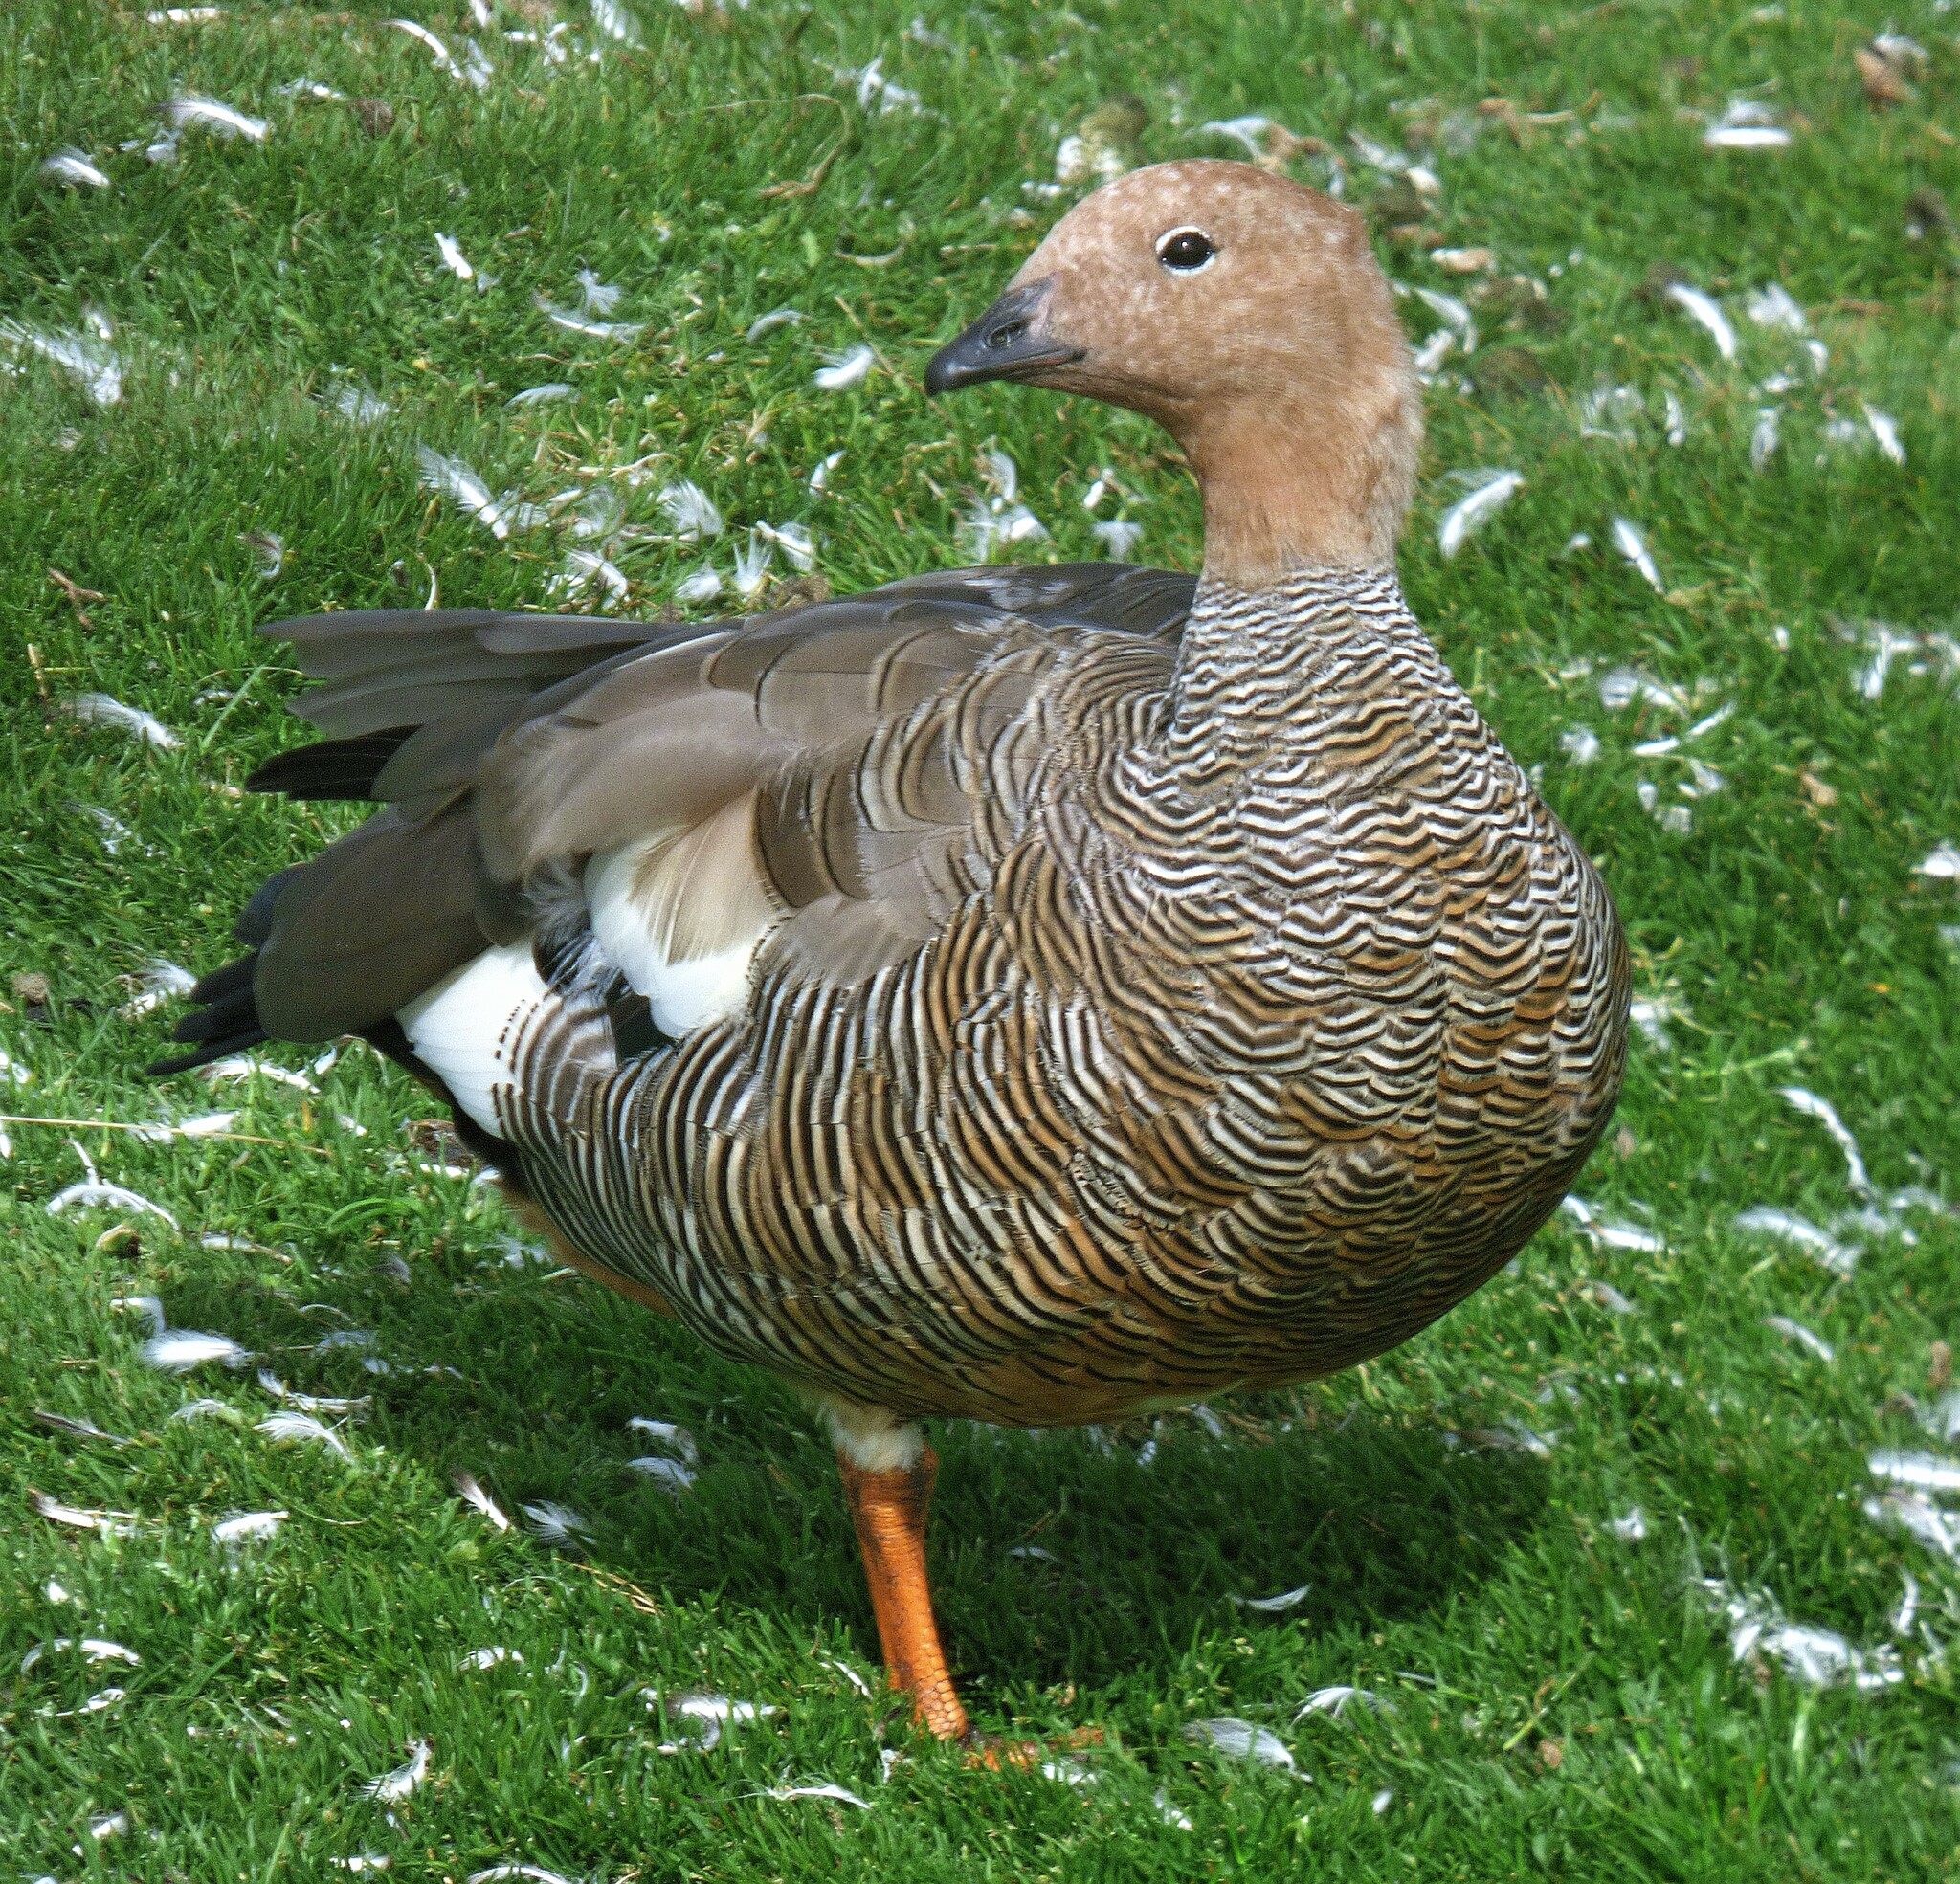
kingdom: Animalia
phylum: Chordata
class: Aves
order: Anseriformes
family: Anatidae
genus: Chloephaga
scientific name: Chloephaga rubidiceps
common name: Ruddy-headed goose
